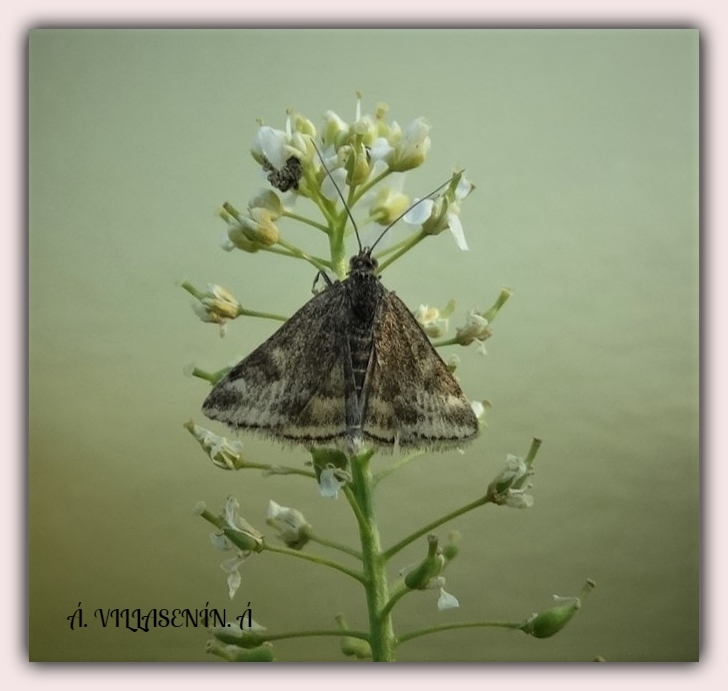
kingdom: Animalia
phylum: Arthropoda
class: Insecta
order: Lepidoptera
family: Crambidae
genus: Pyrausta
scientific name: Pyrausta despicata
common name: Straw-barred pearl
